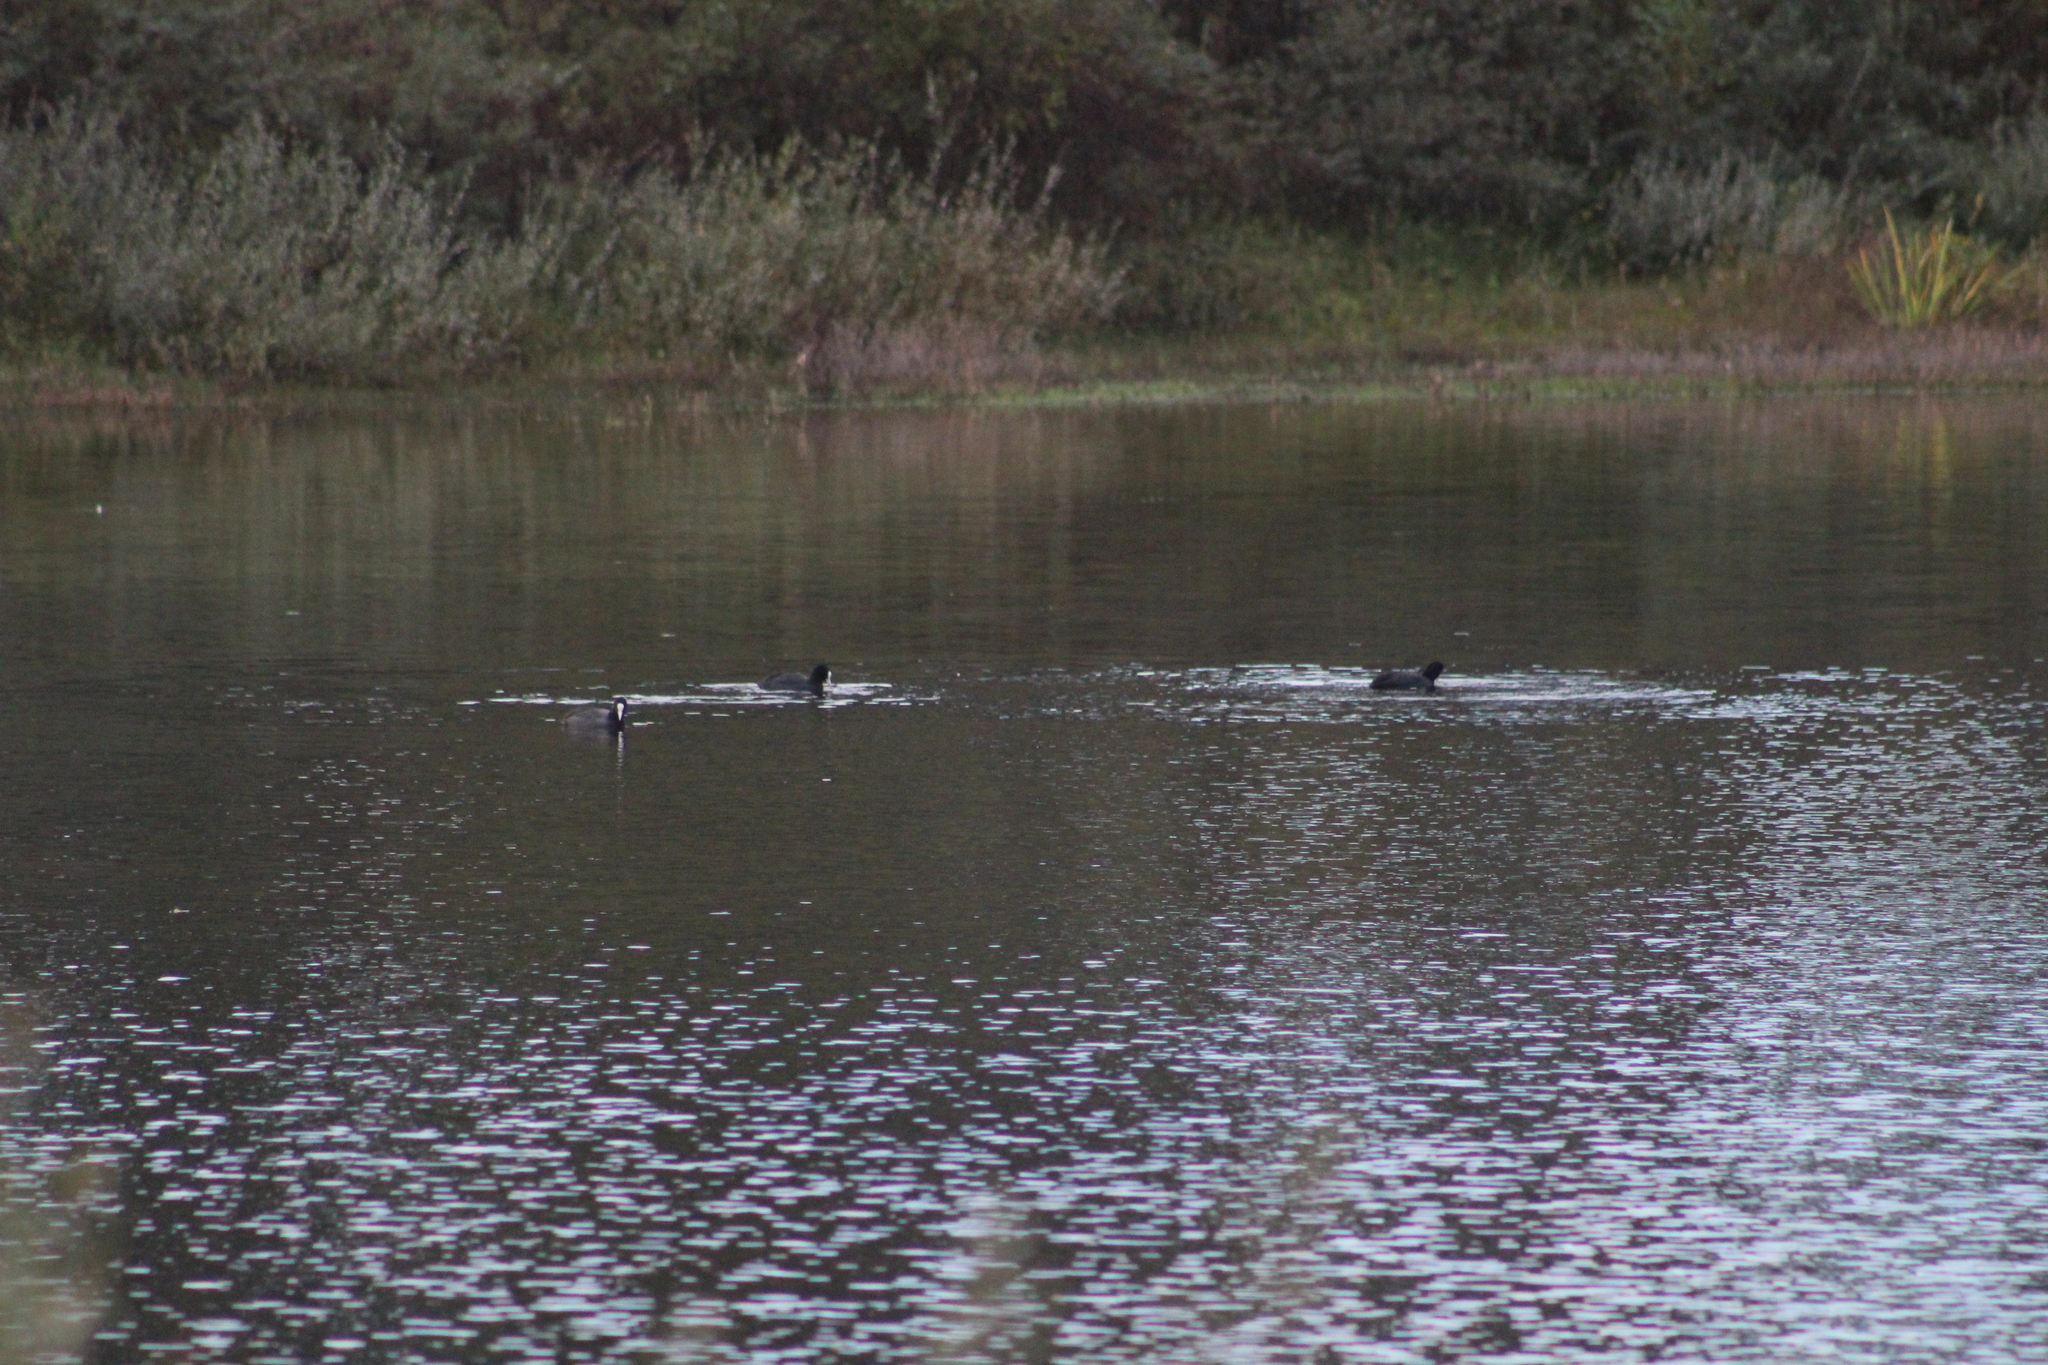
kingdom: Animalia
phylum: Chordata
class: Aves
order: Gruiformes
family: Rallidae
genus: Fulica
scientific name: Fulica atra
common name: Eurasian coot
